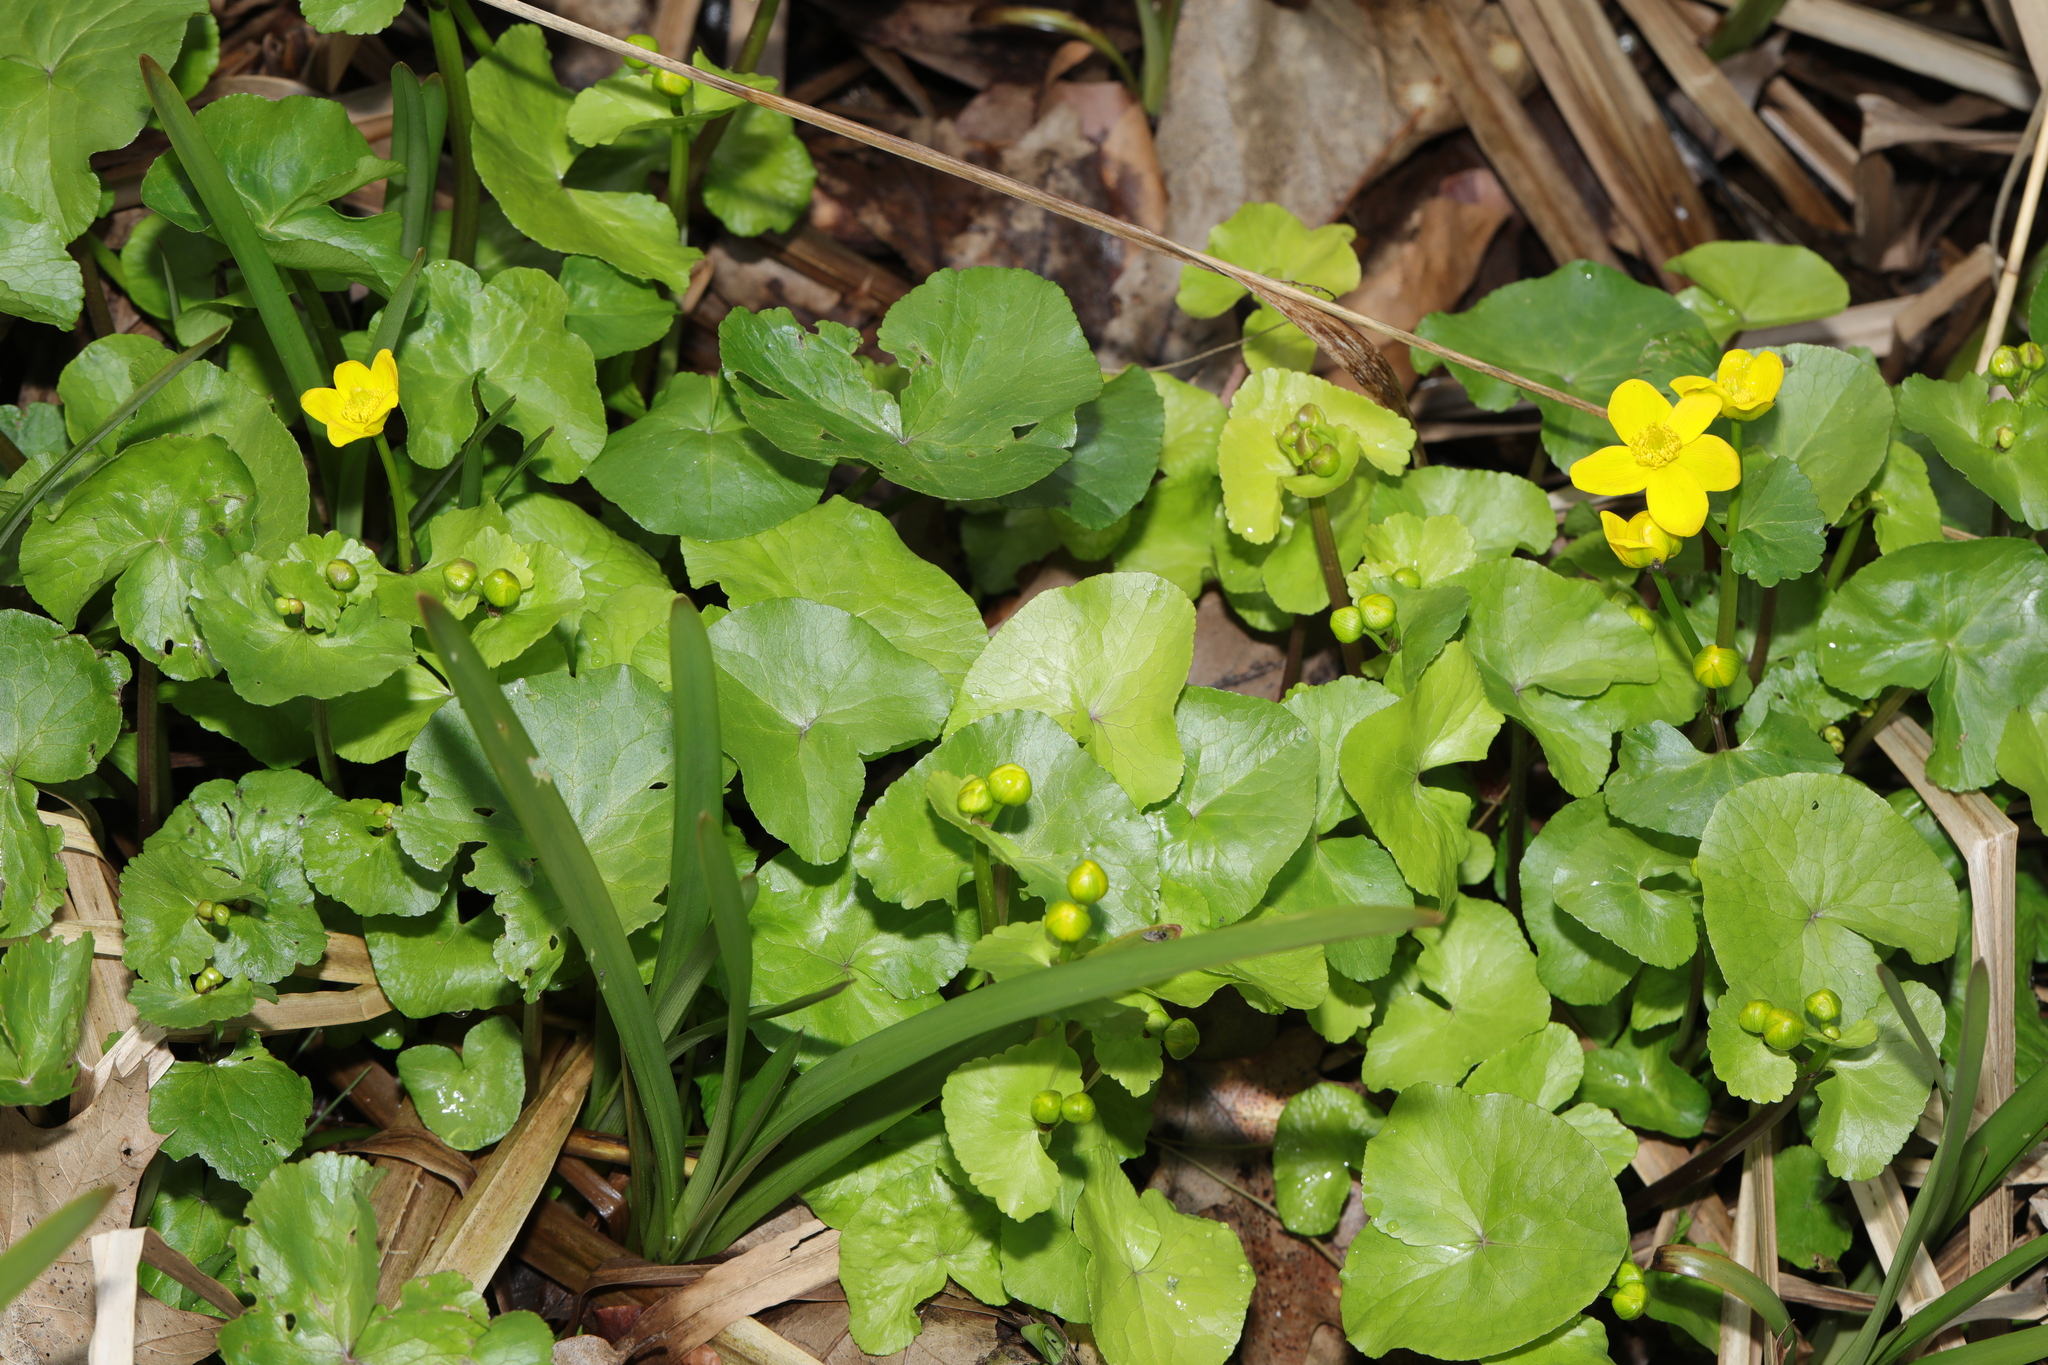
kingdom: Plantae
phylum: Tracheophyta
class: Magnoliopsida
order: Ranunculales
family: Ranunculaceae
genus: Caltha
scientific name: Caltha palustris
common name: Marsh marigold
